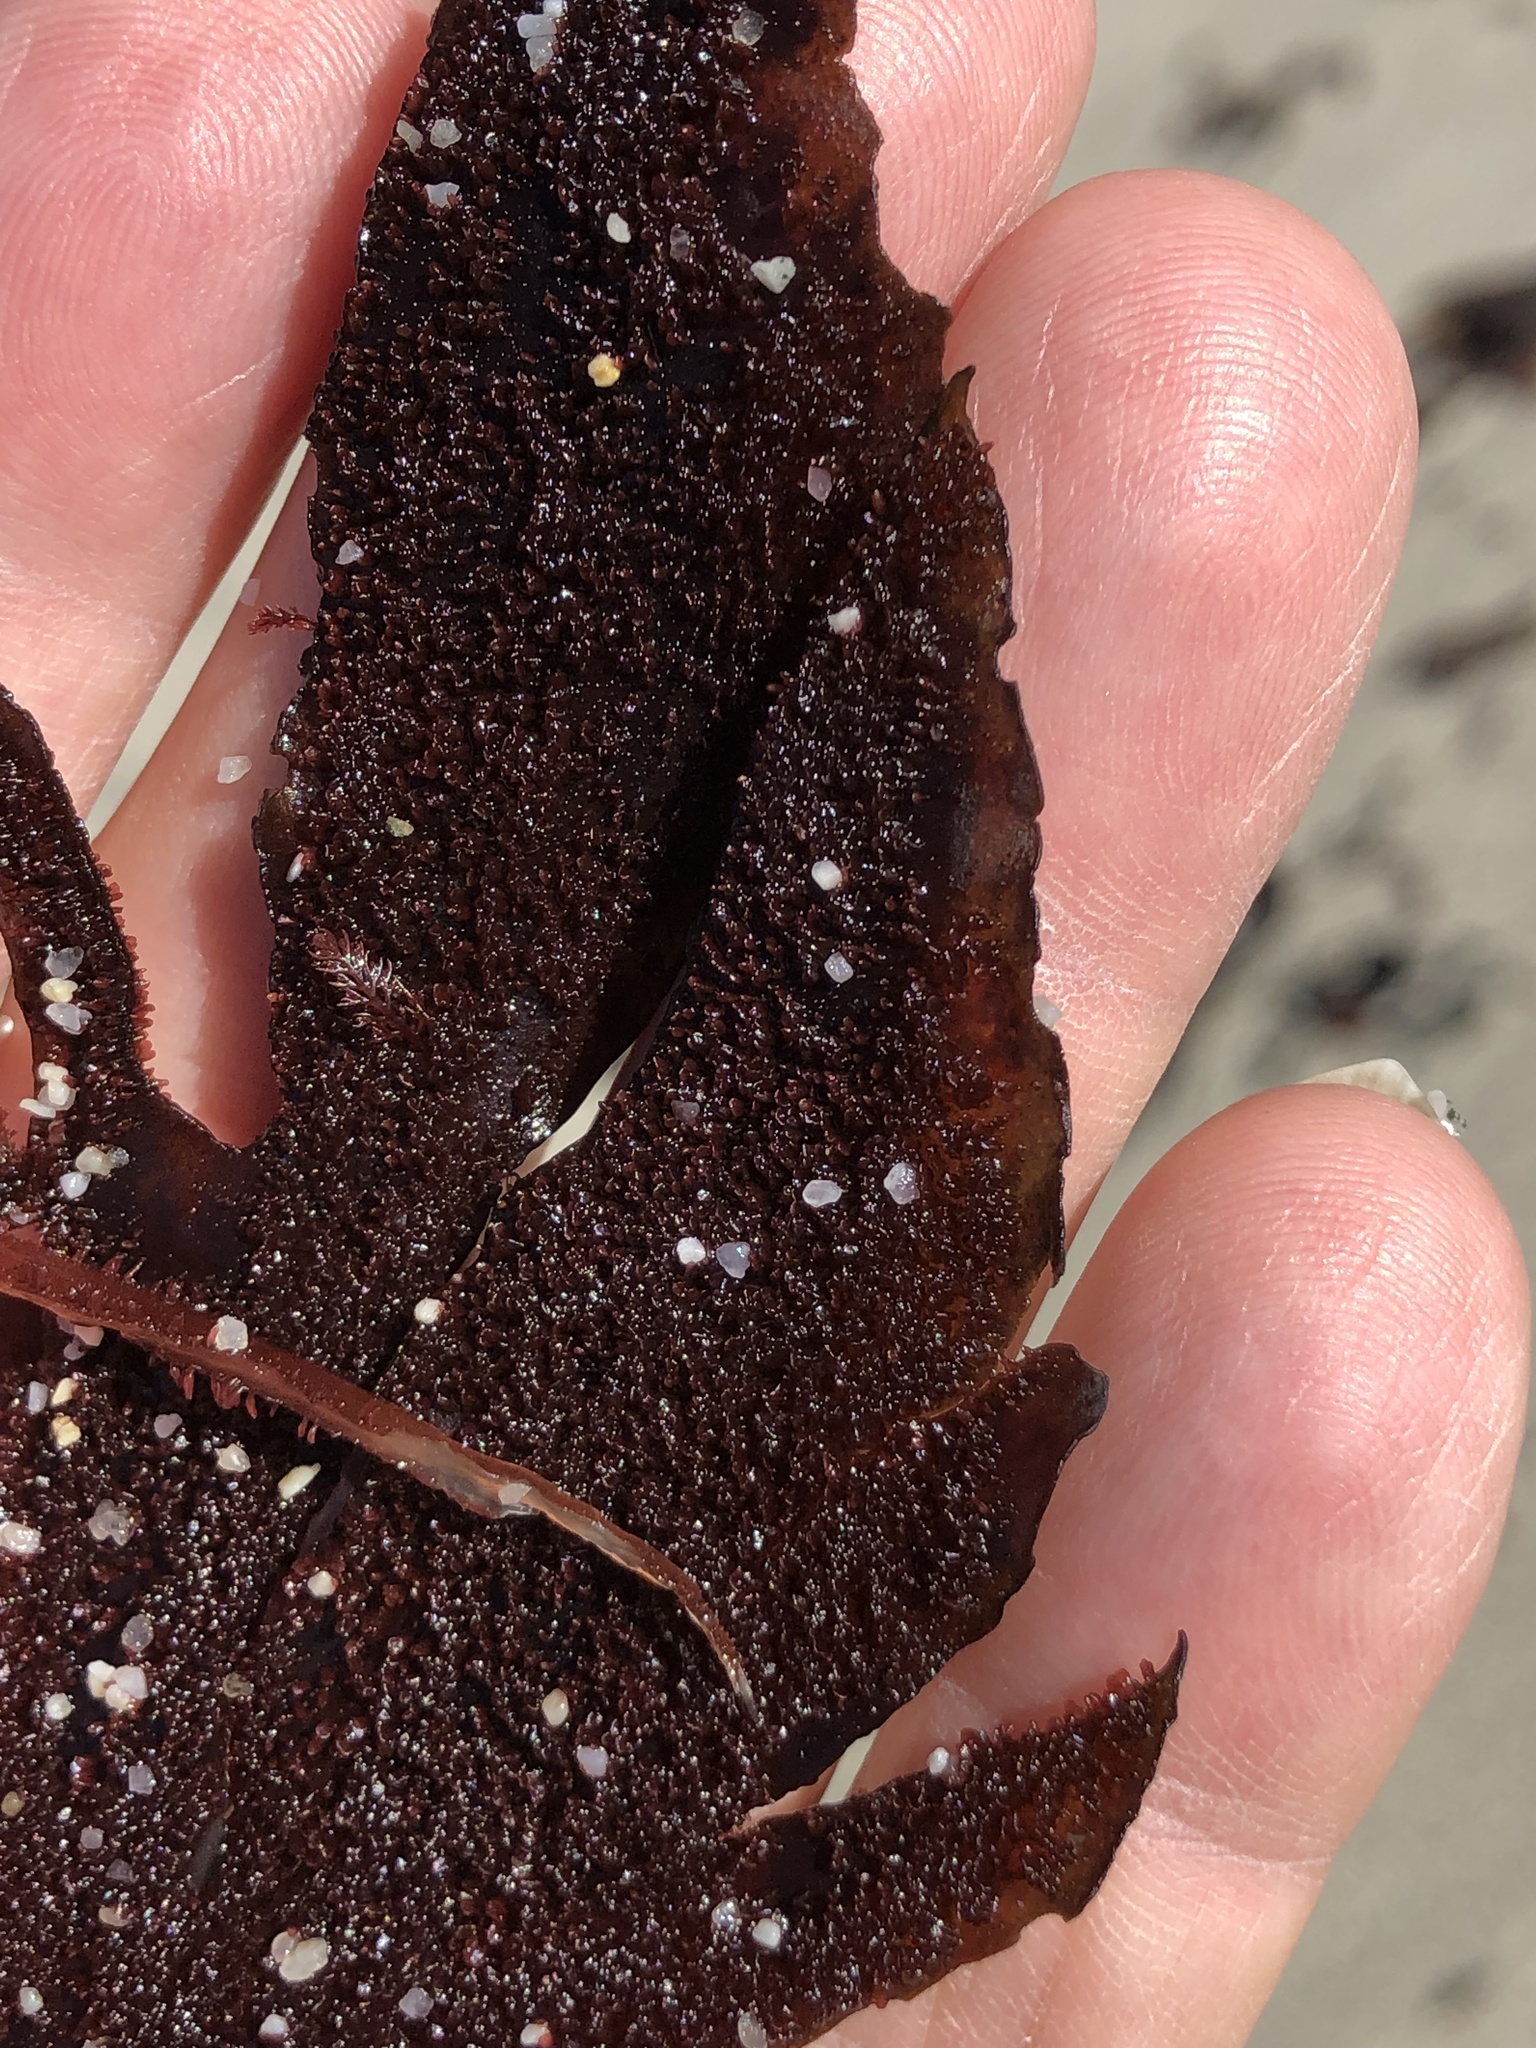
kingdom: Plantae
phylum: Rhodophyta
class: Florideophyceae
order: Gigartinales
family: Kallymeniaceae
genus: Erythrophyllum
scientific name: Erythrophyllum delesserioides
